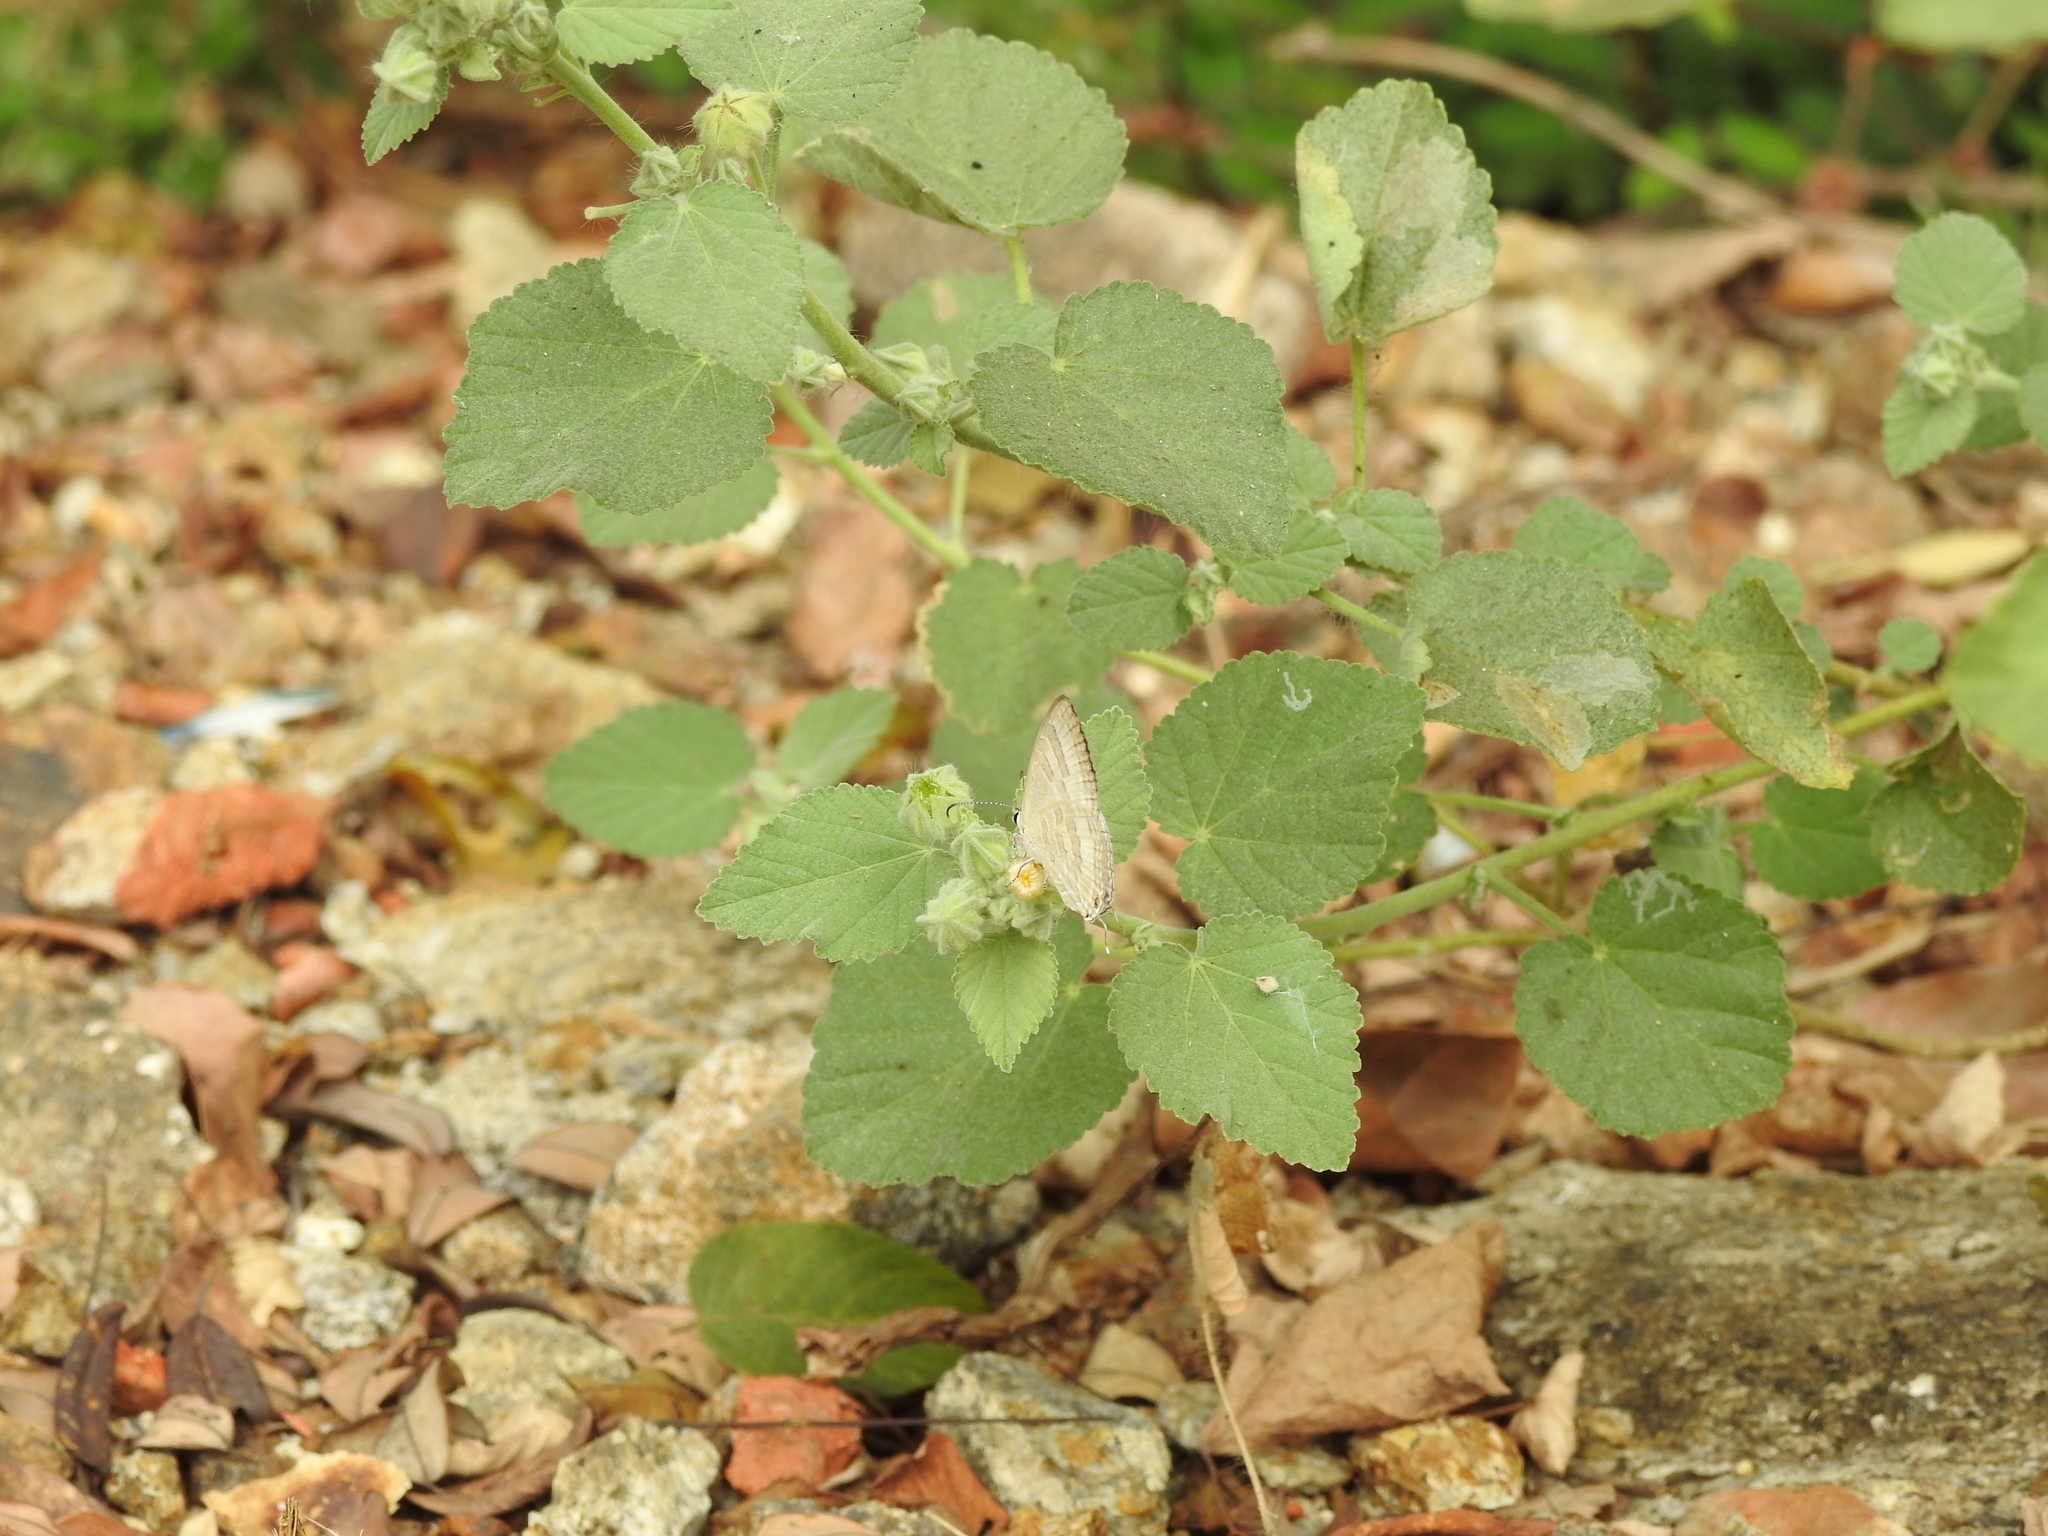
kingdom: Animalia
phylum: Arthropoda
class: Insecta
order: Lepidoptera
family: Lycaenidae
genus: Jamides
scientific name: Jamides celeno
